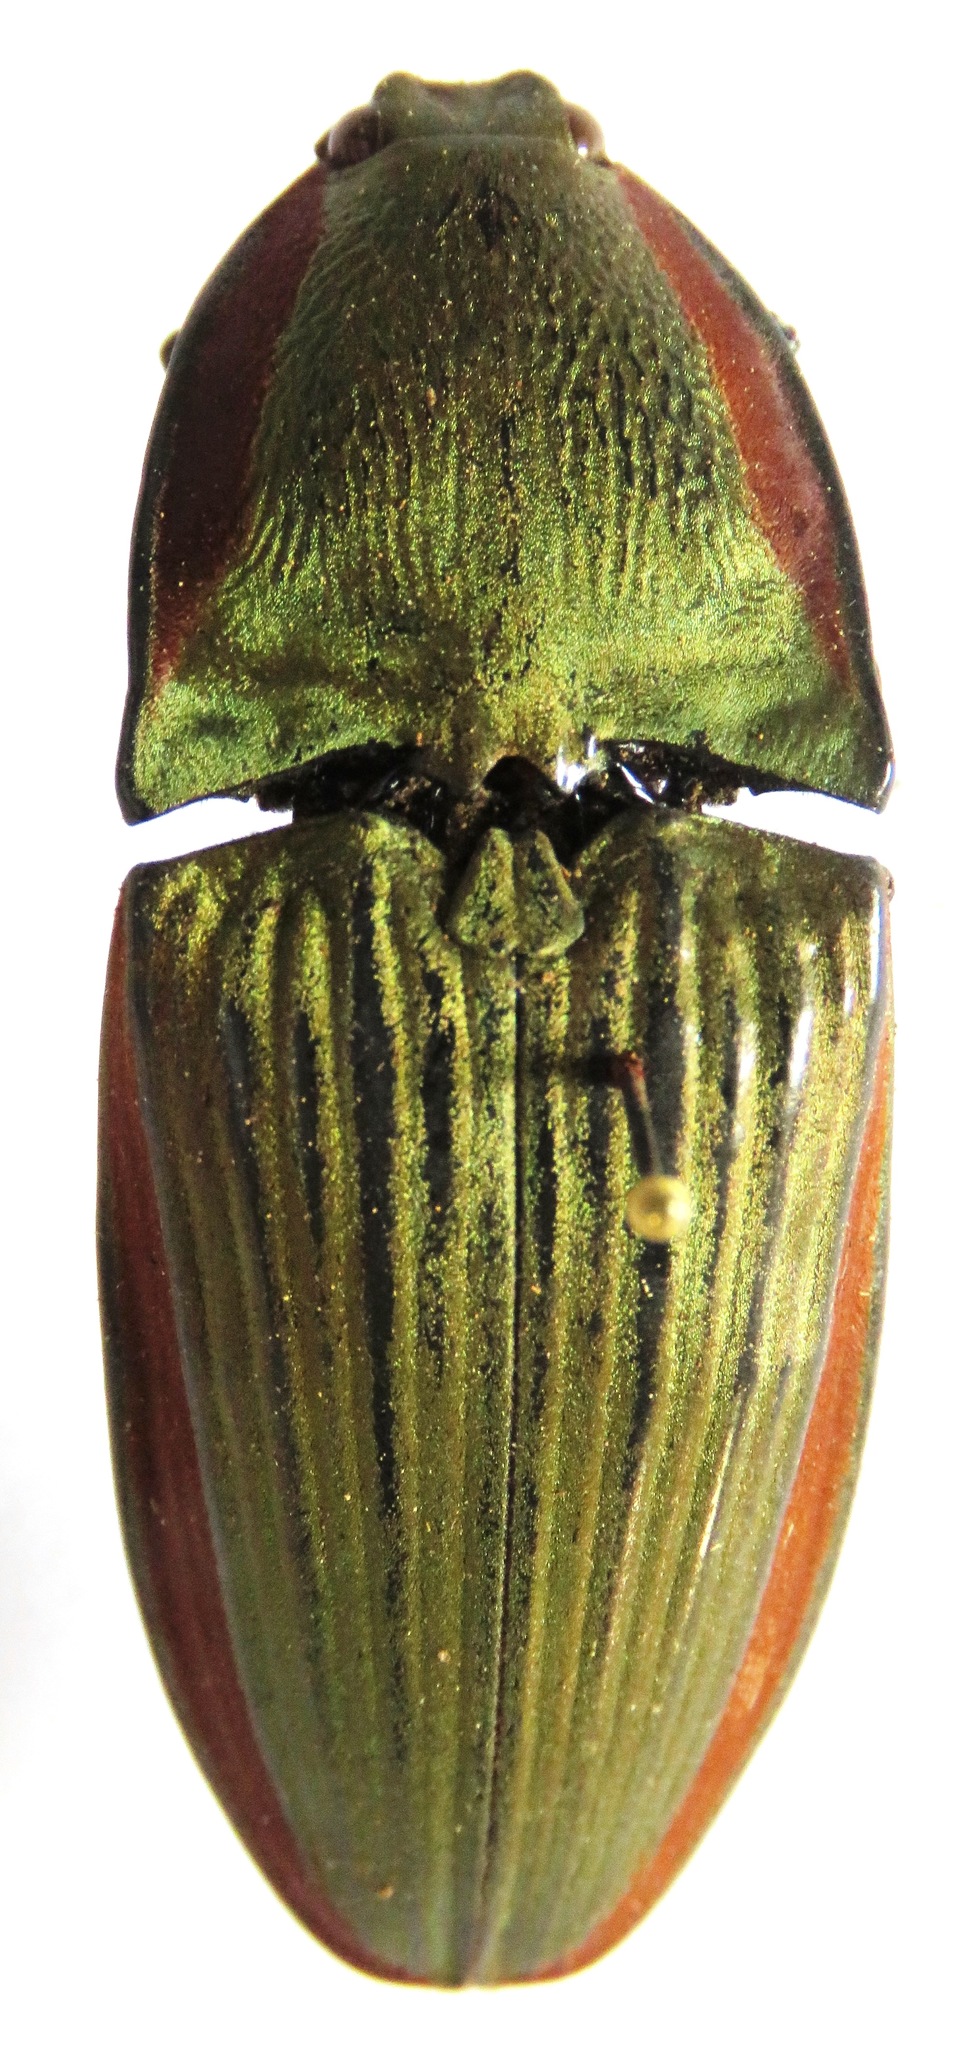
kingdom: Animalia
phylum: Arthropoda
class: Insecta
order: Coleoptera
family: Elateridae
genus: Chalcolepidius
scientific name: Chalcolepidius
